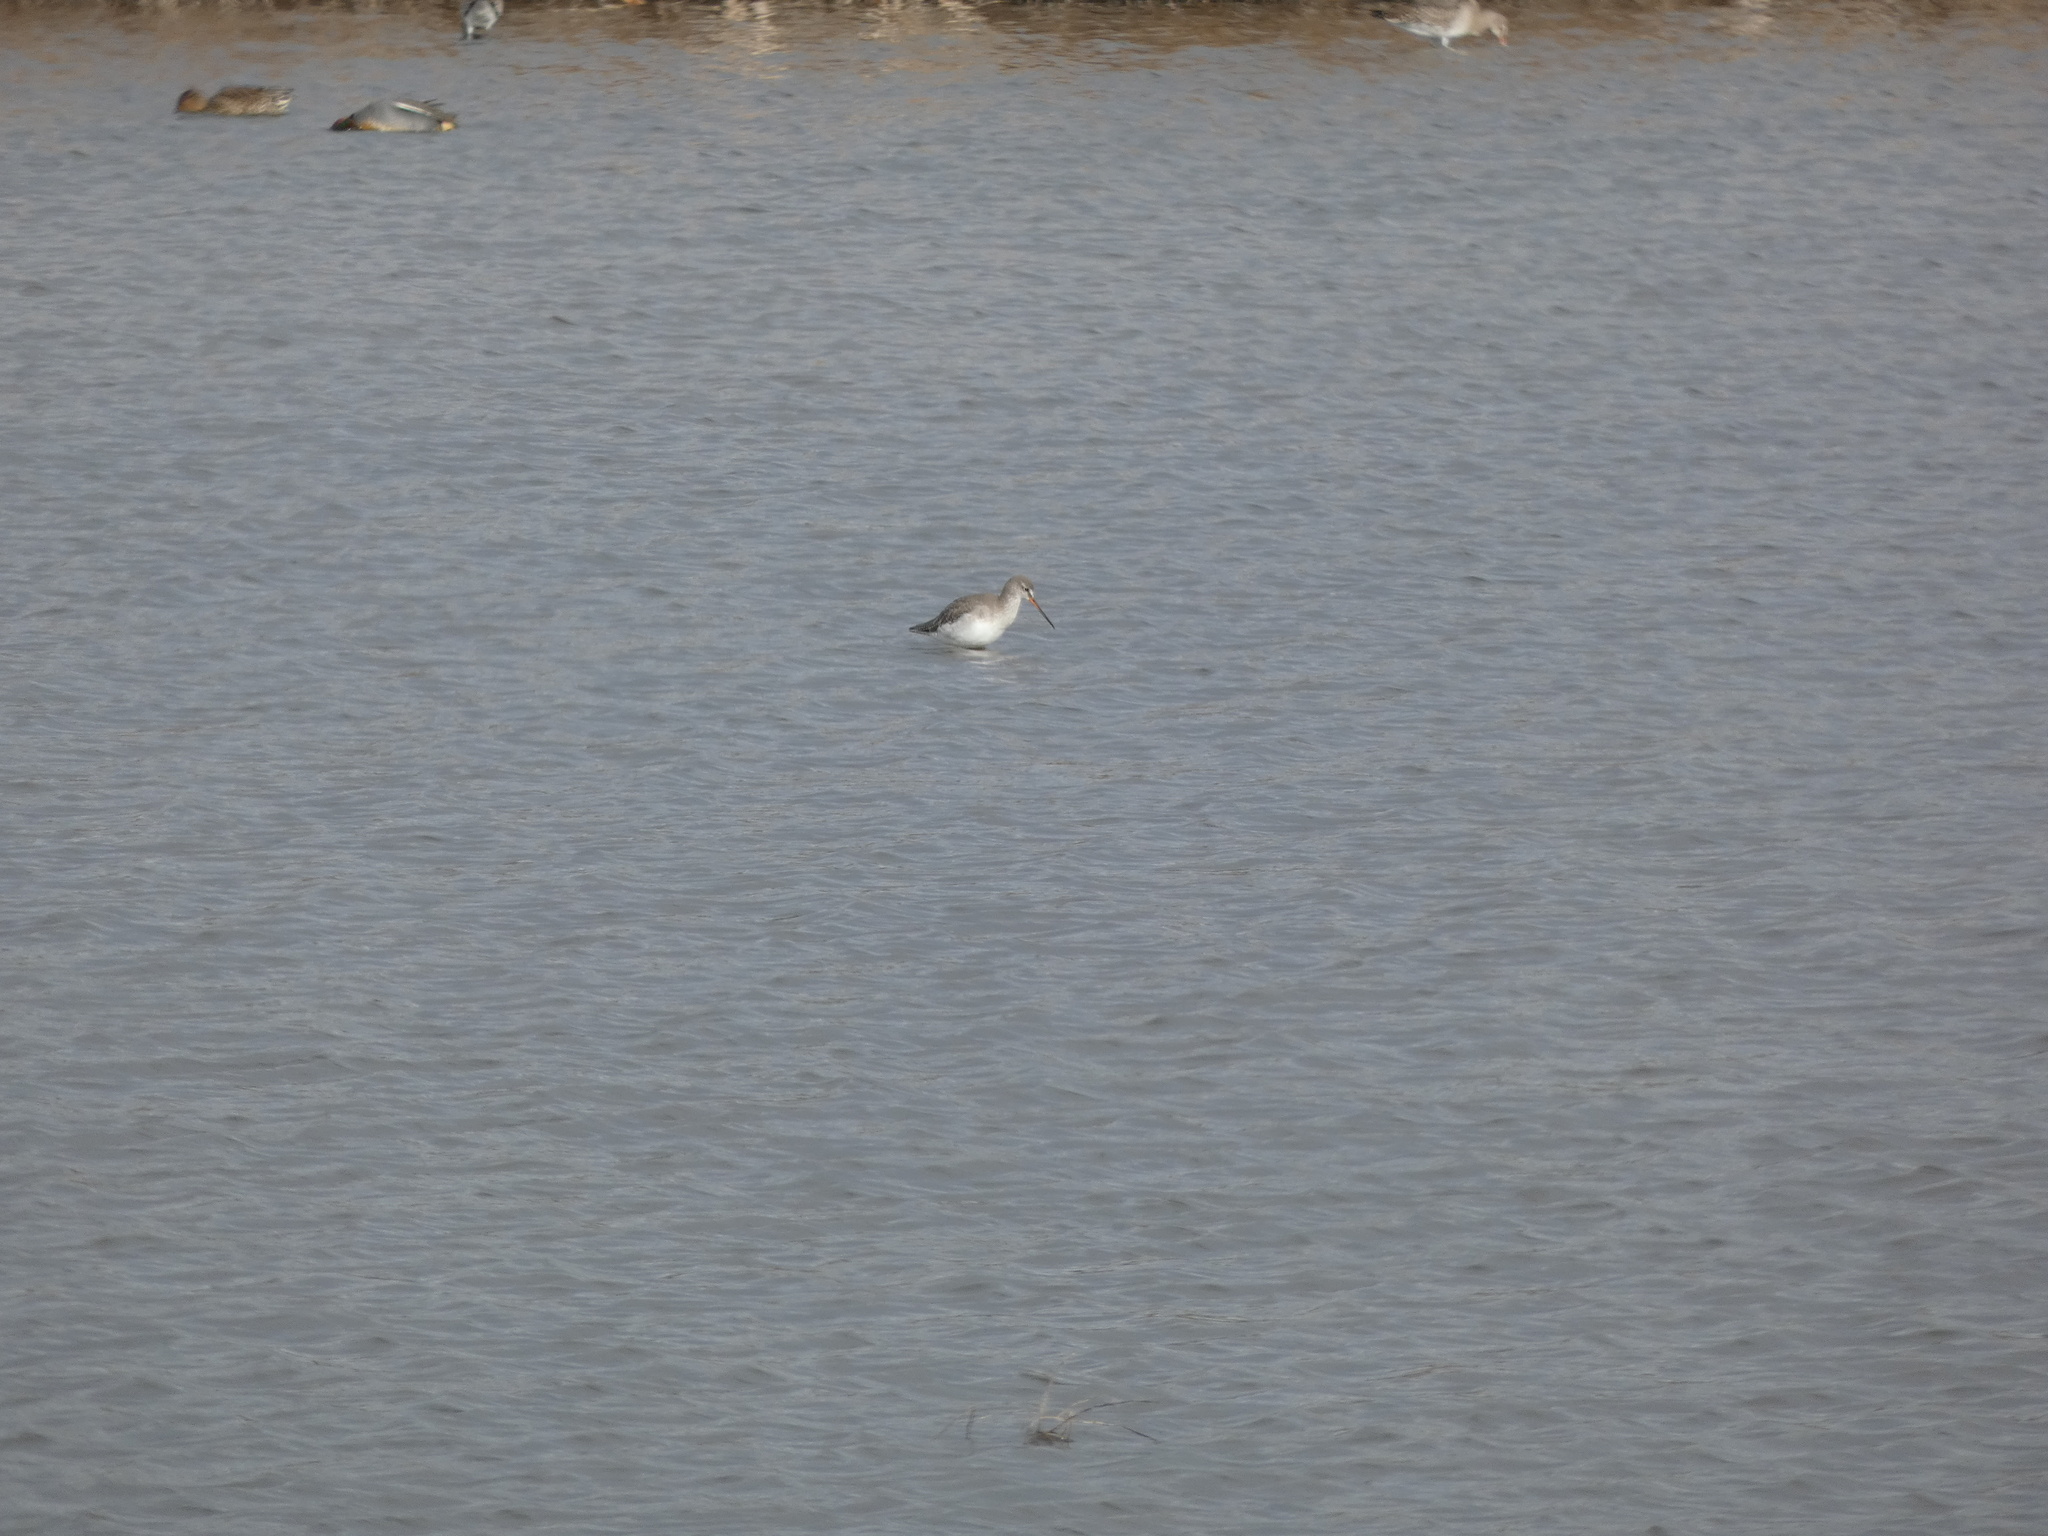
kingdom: Animalia
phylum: Chordata
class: Aves
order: Charadriiformes
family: Scolopacidae
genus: Tringa
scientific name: Tringa erythropus
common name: Spotted redshank
